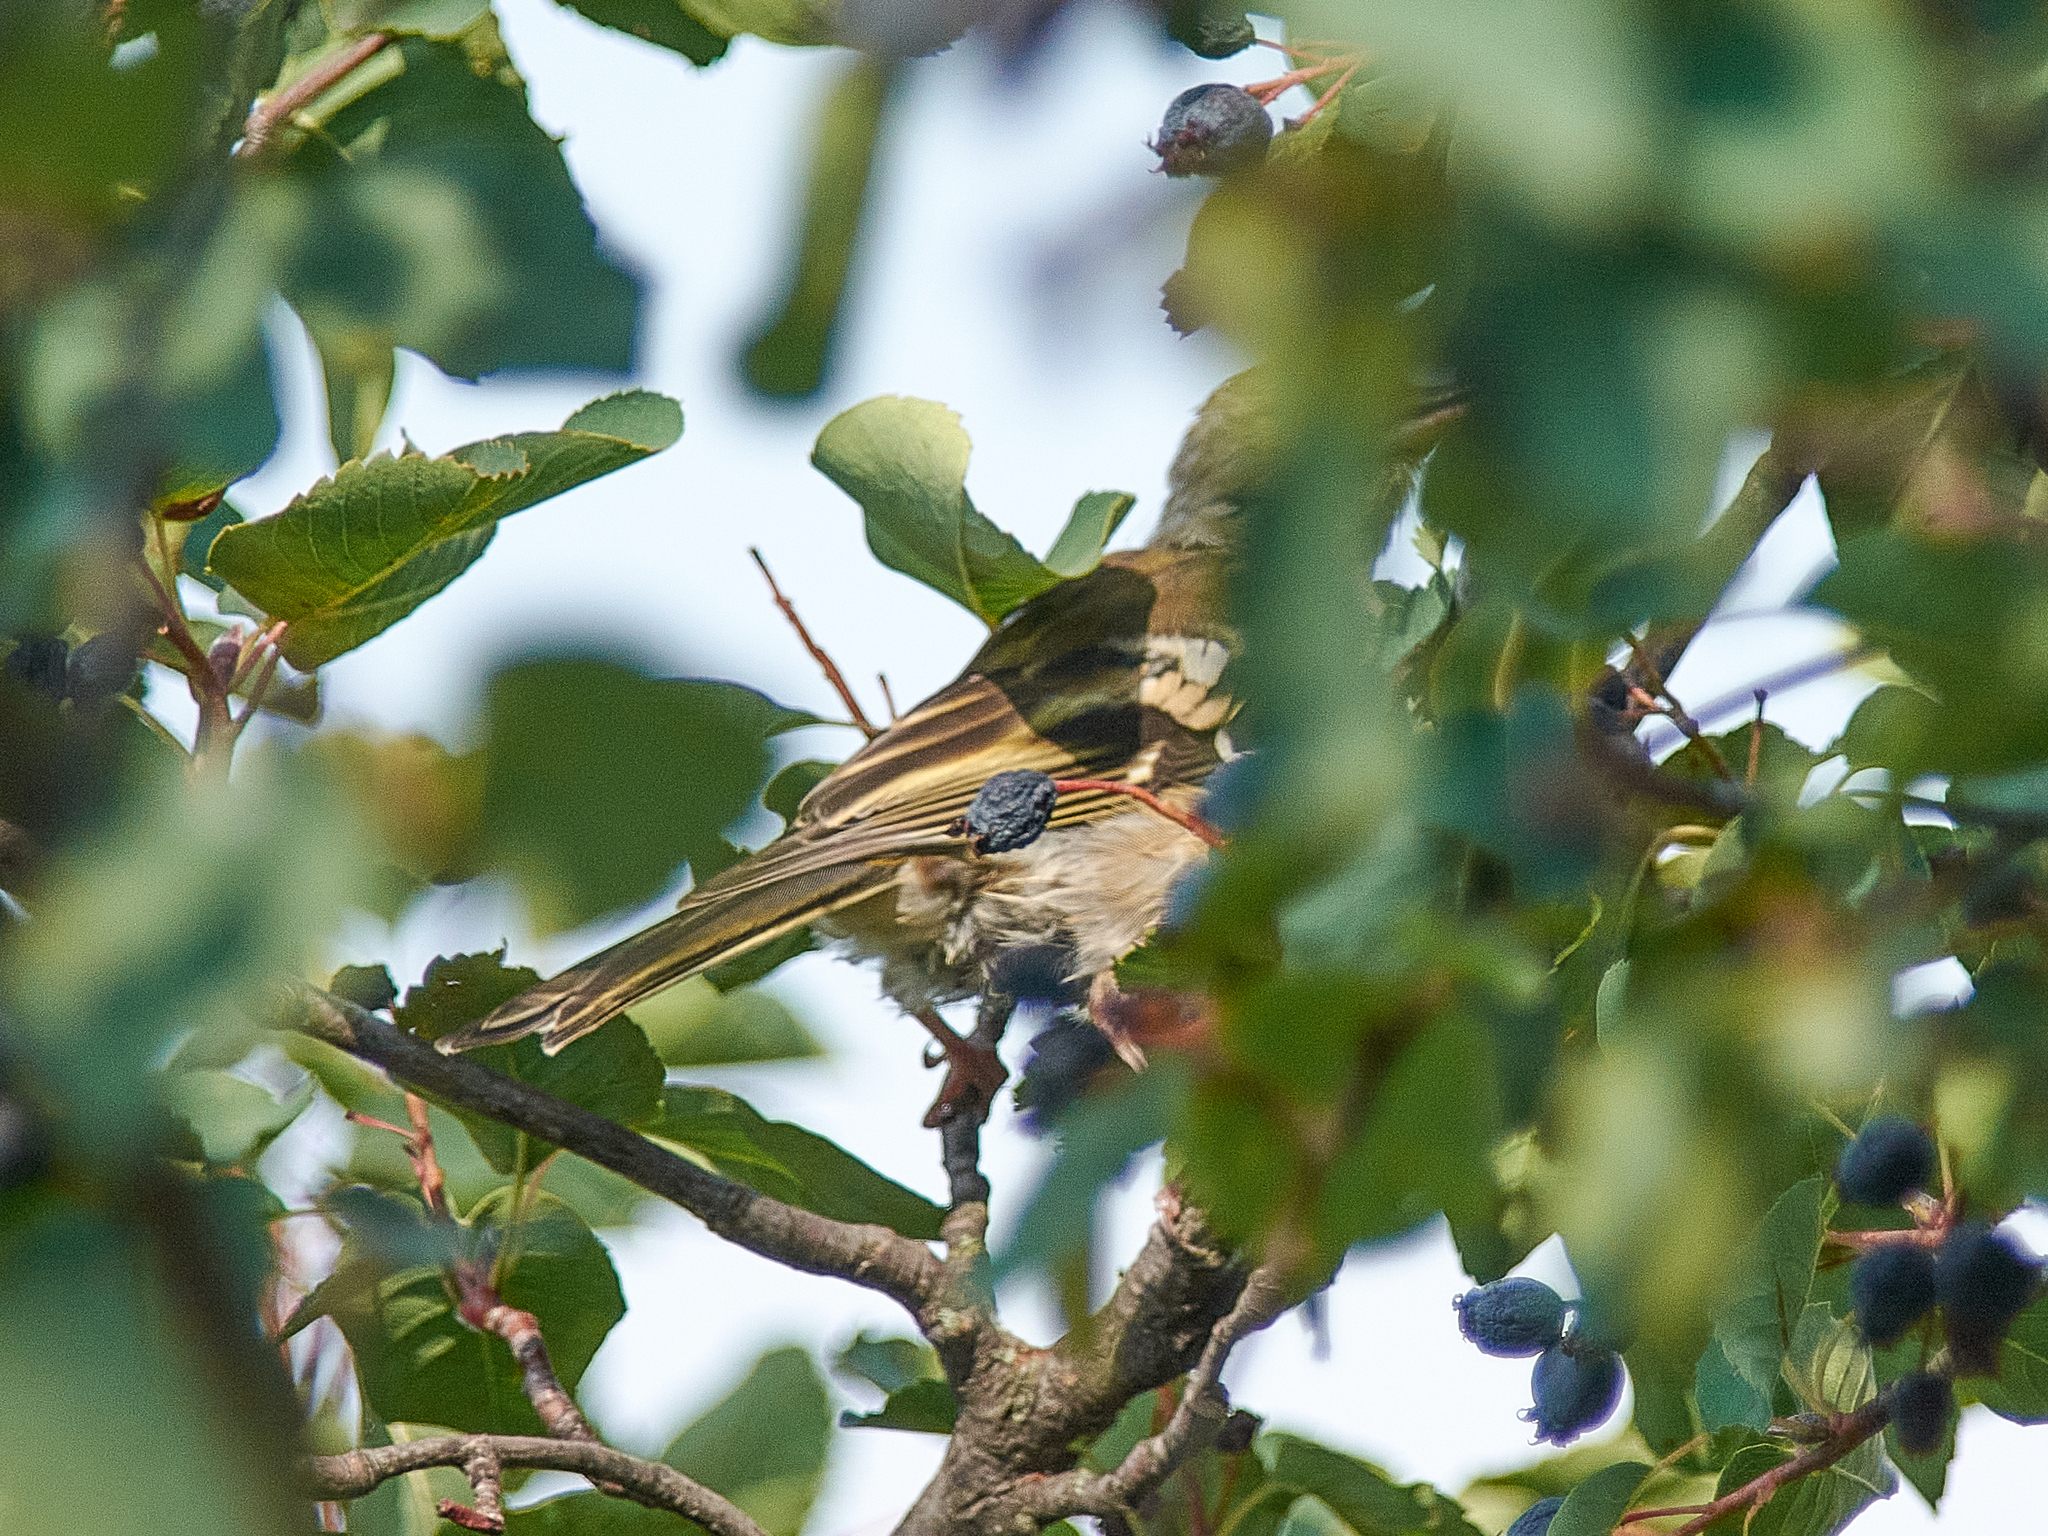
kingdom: Animalia
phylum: Chordata
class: Aves
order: Passeriformes
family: Fringillidae
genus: Fringilla
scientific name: Fringilla coelebs
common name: Common chaffinch
